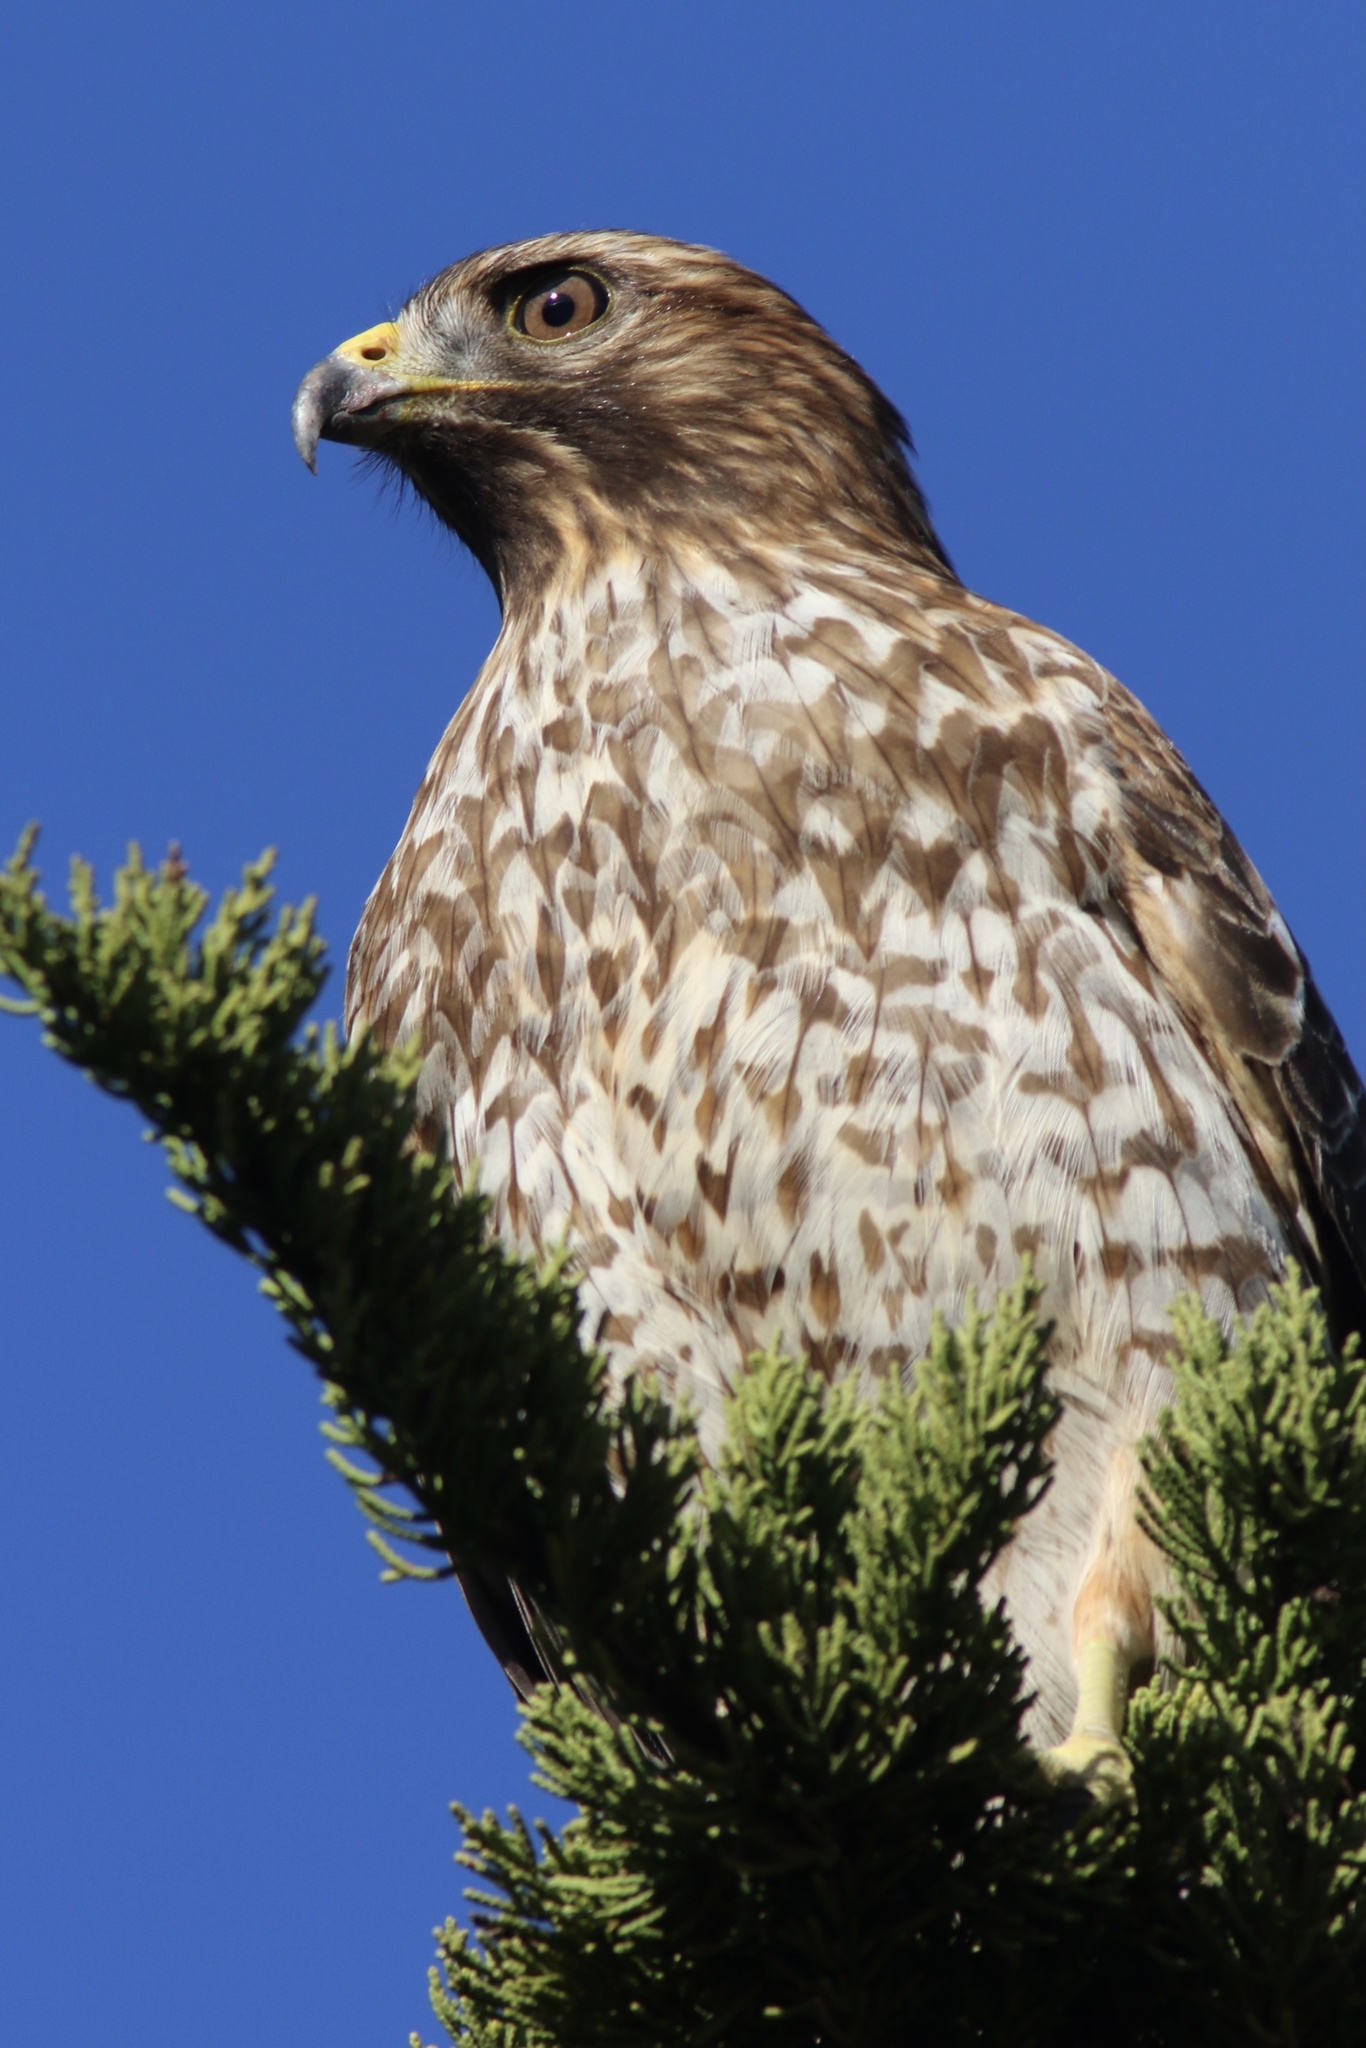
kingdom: Animalia
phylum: Chordata
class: Aves
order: Accipitriformes
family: Accipitridae
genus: Buteo
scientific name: Buteo lineatus
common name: Red-shouldered hawk
